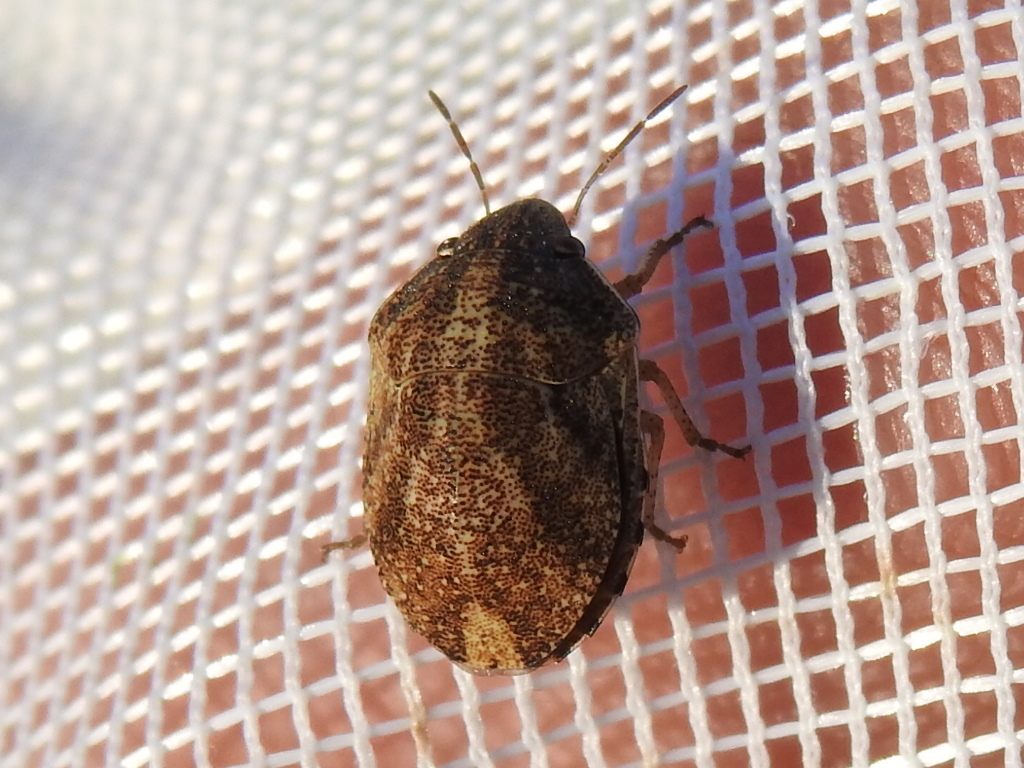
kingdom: Animalia
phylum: Arthropoda
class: Insecta
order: Hemiptera
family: Scutelleridae
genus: Sphyrocoris
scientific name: Sphyrocoris obliquus
